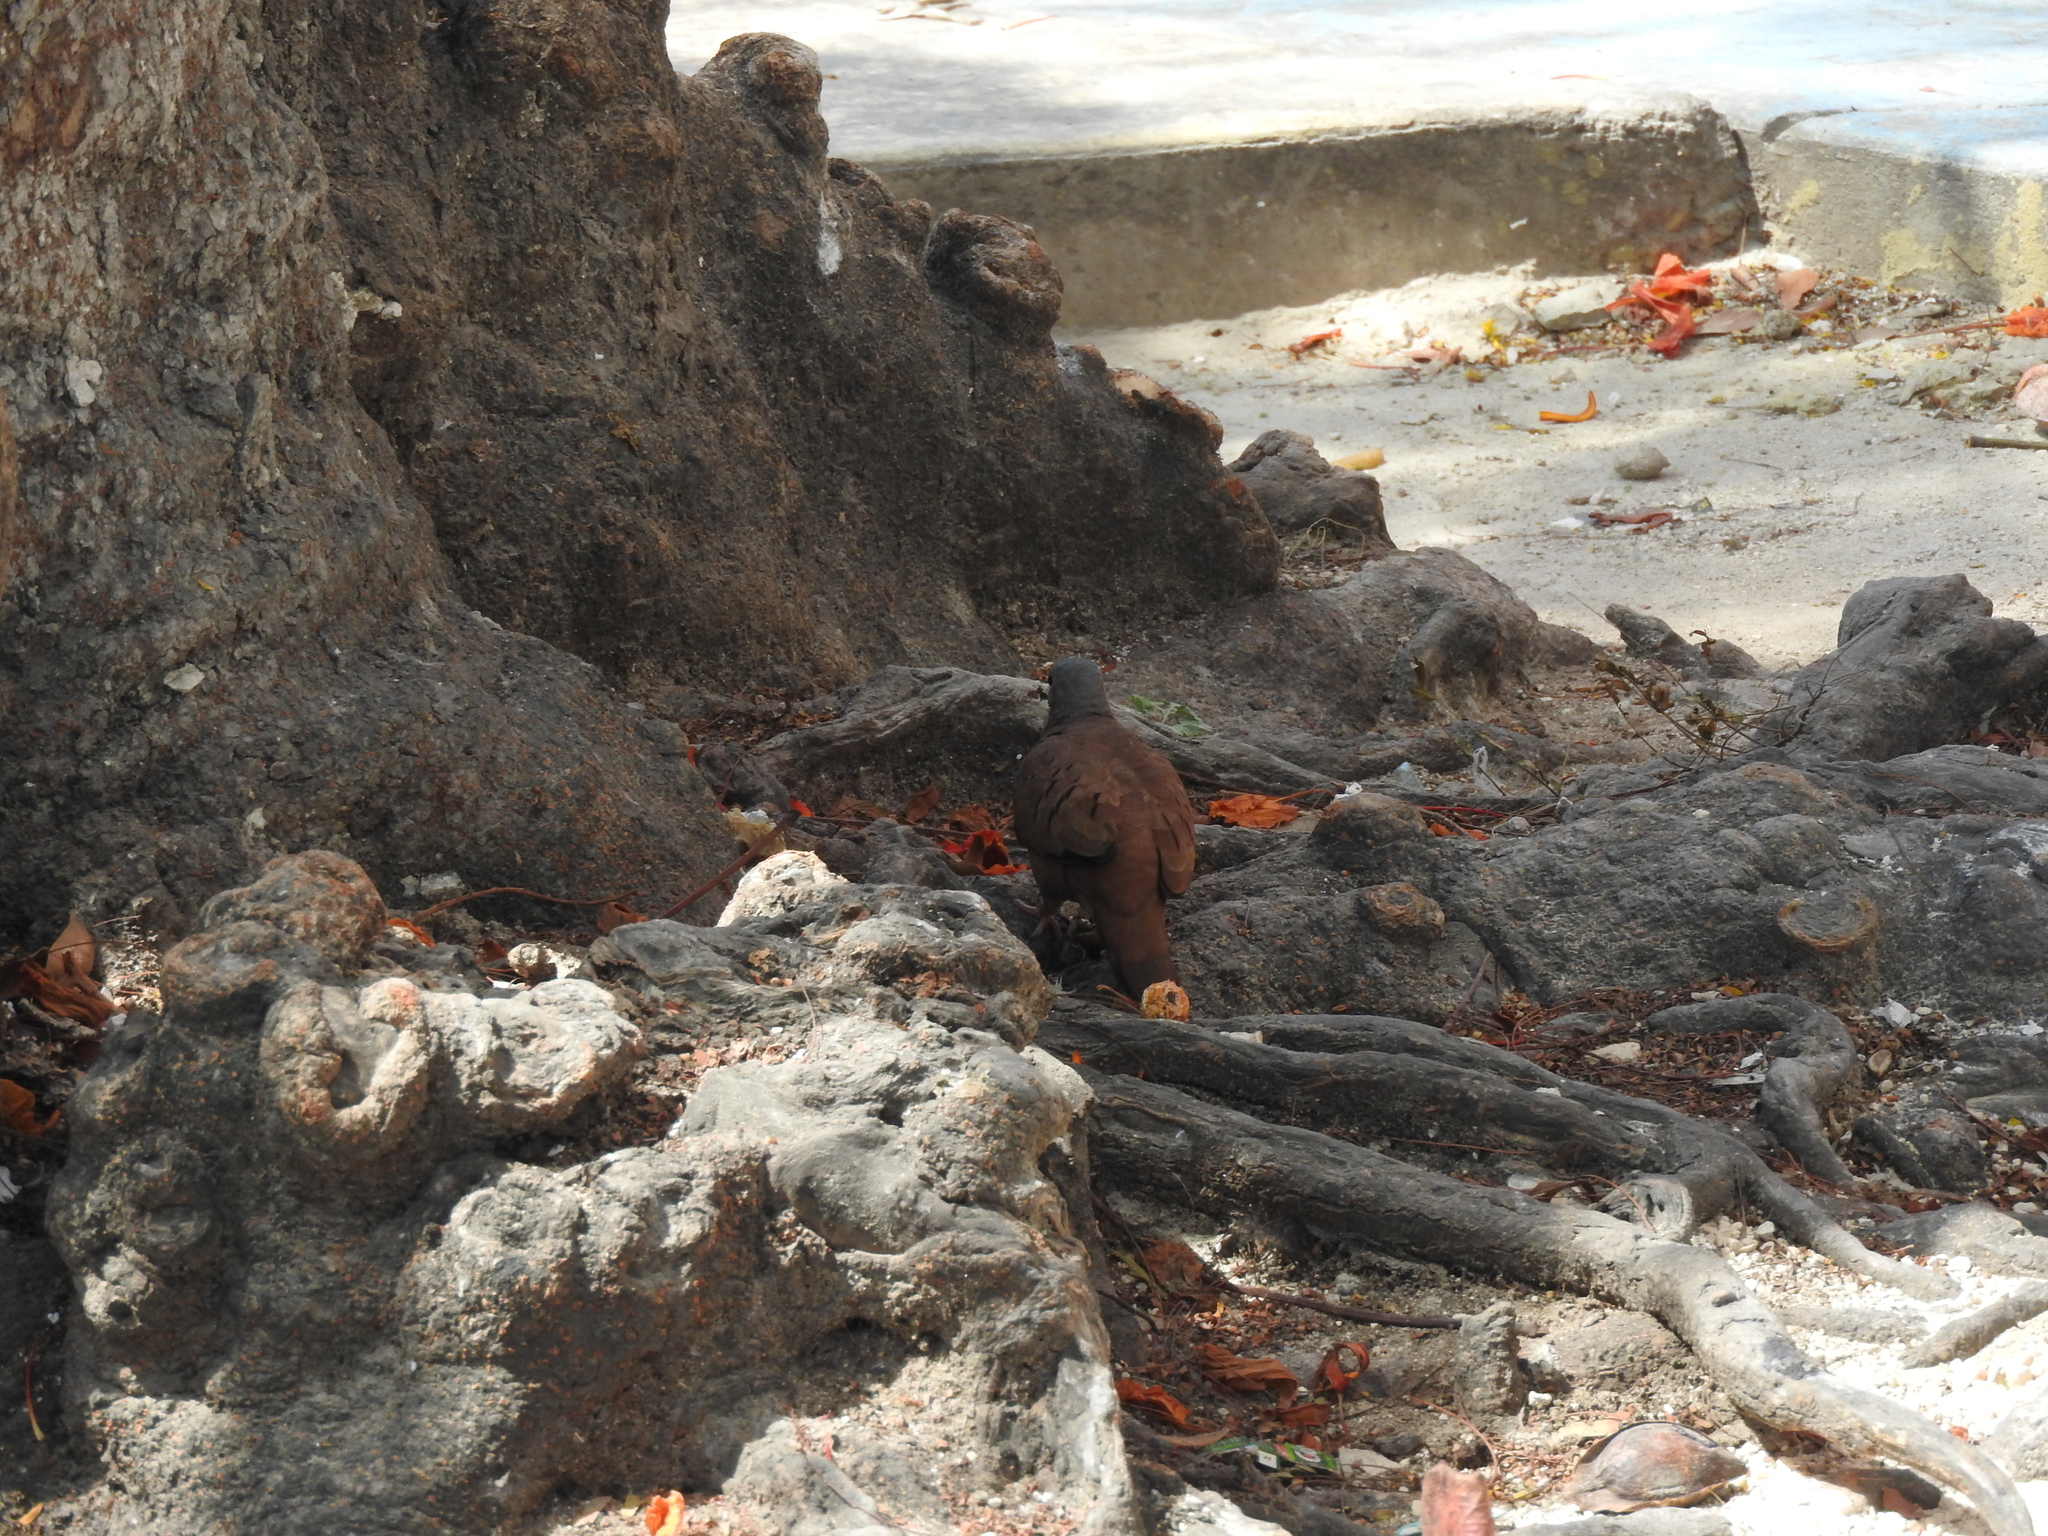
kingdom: Animalia
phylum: Chordata
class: Aves
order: Columbiformes
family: Columbidae
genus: Columbina
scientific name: Columbina talpacoti
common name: Ruddy ground dove
